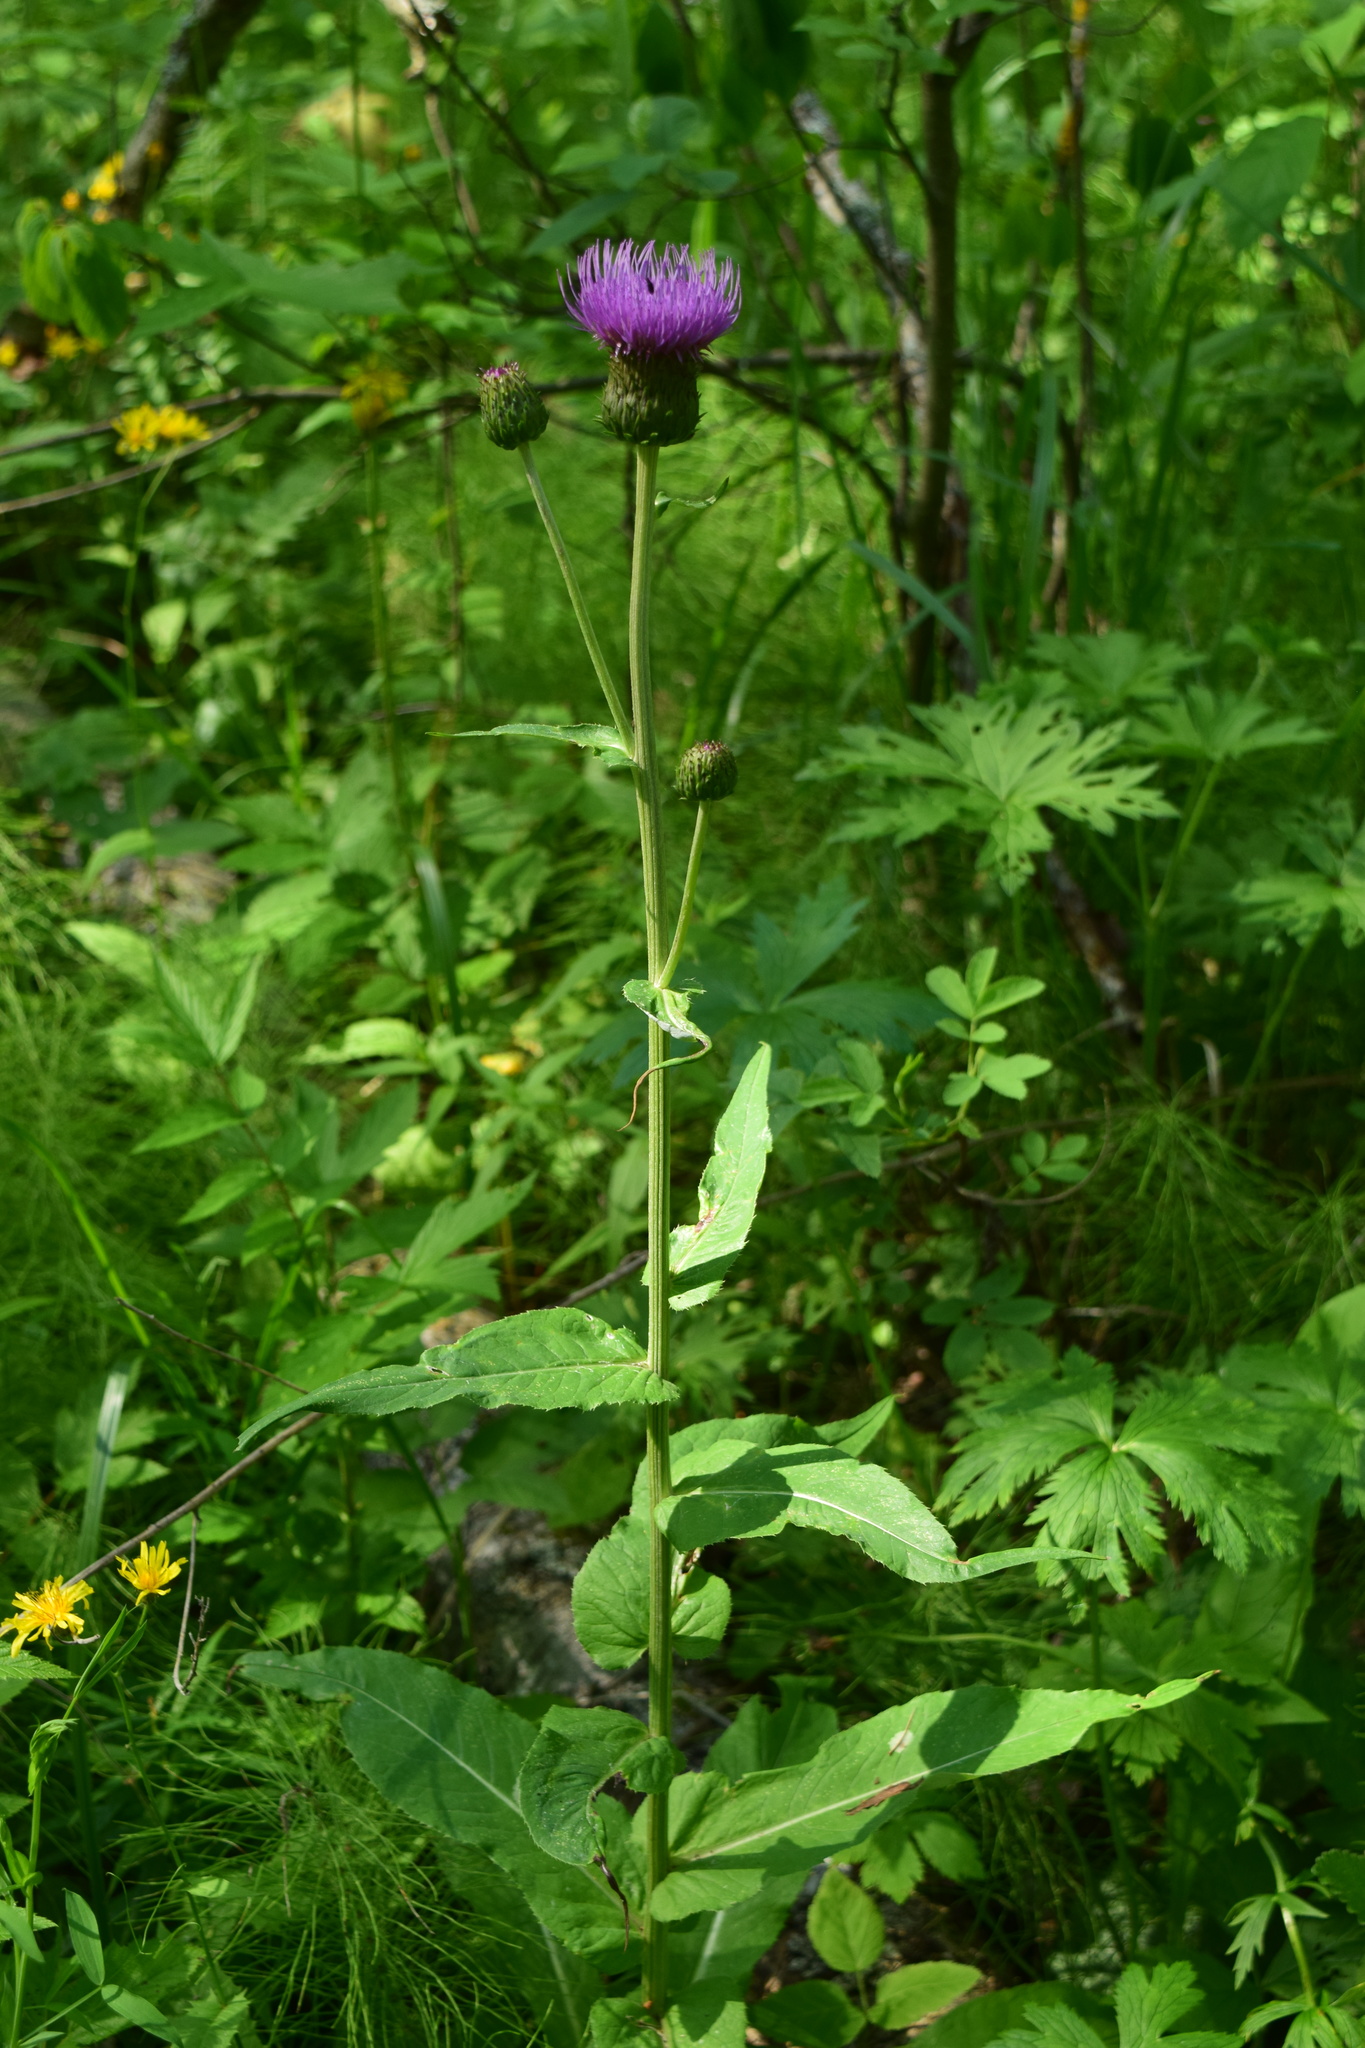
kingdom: Plantae
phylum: Tracheophyta
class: Magnoliopsida
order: Asterales
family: Asteraceae
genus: Cirsium
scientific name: Cirsium heterophyllum
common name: Melancholy thistle
